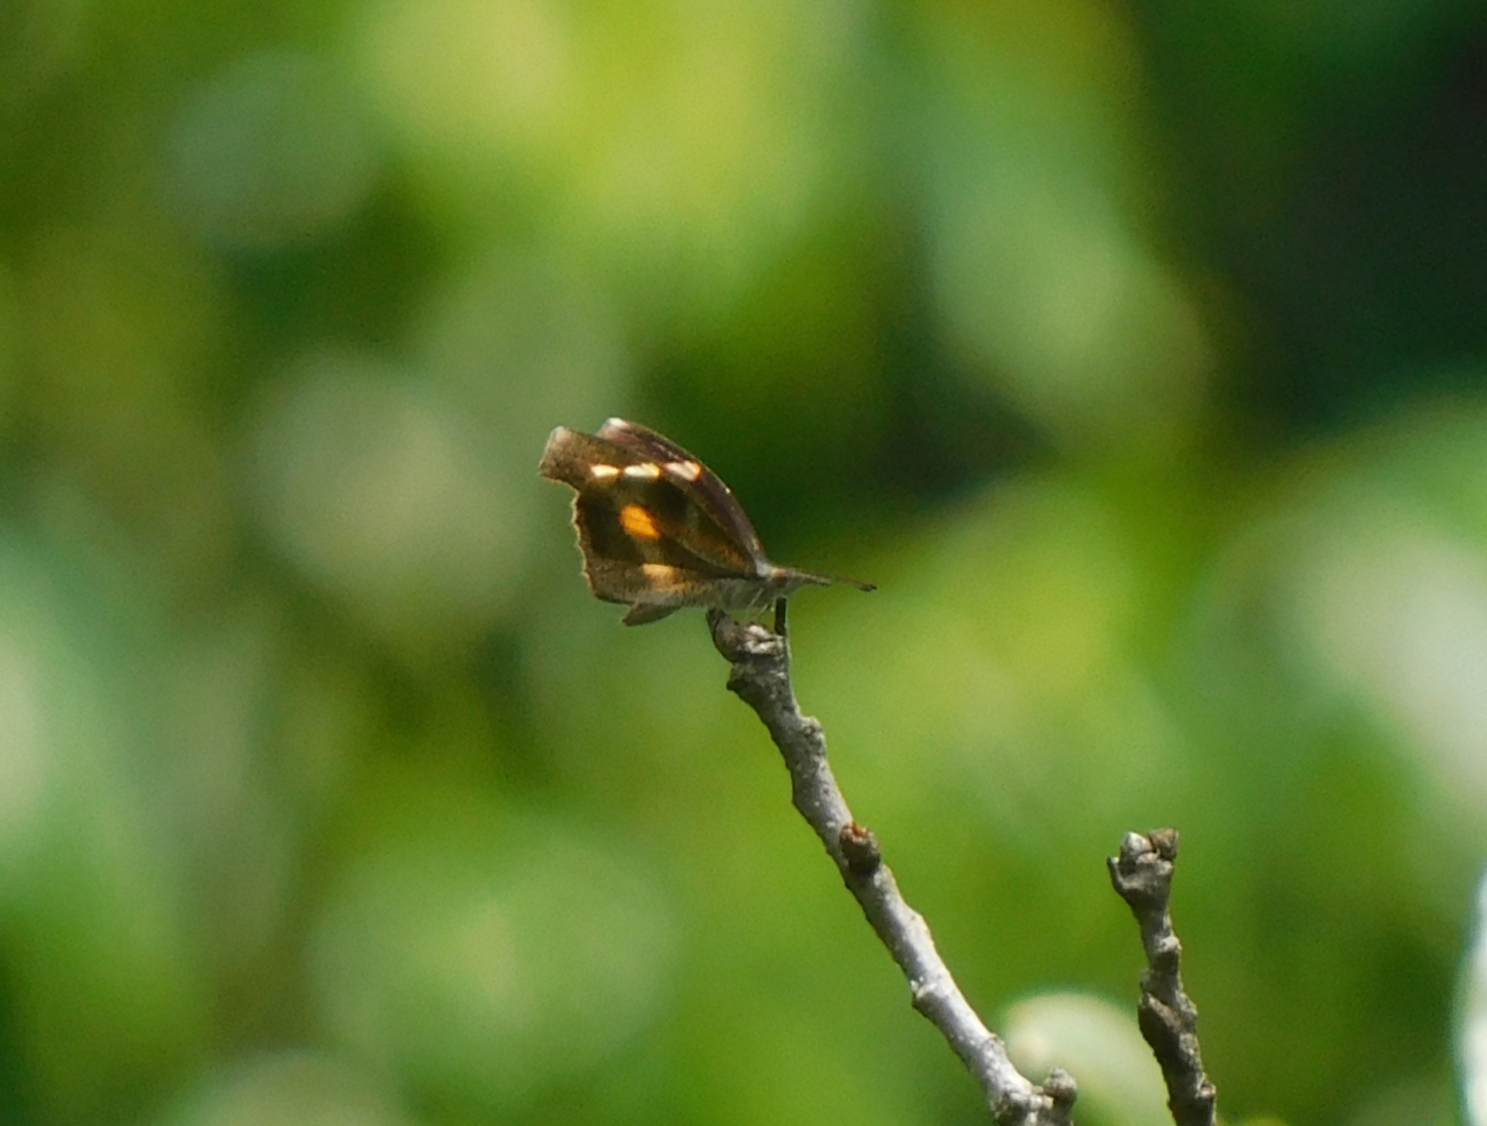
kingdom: Animalia
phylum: Arthropoda
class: Insecta
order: Lepidoptera
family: Nymphalidae
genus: Libythea
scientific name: Libythea myrrha
